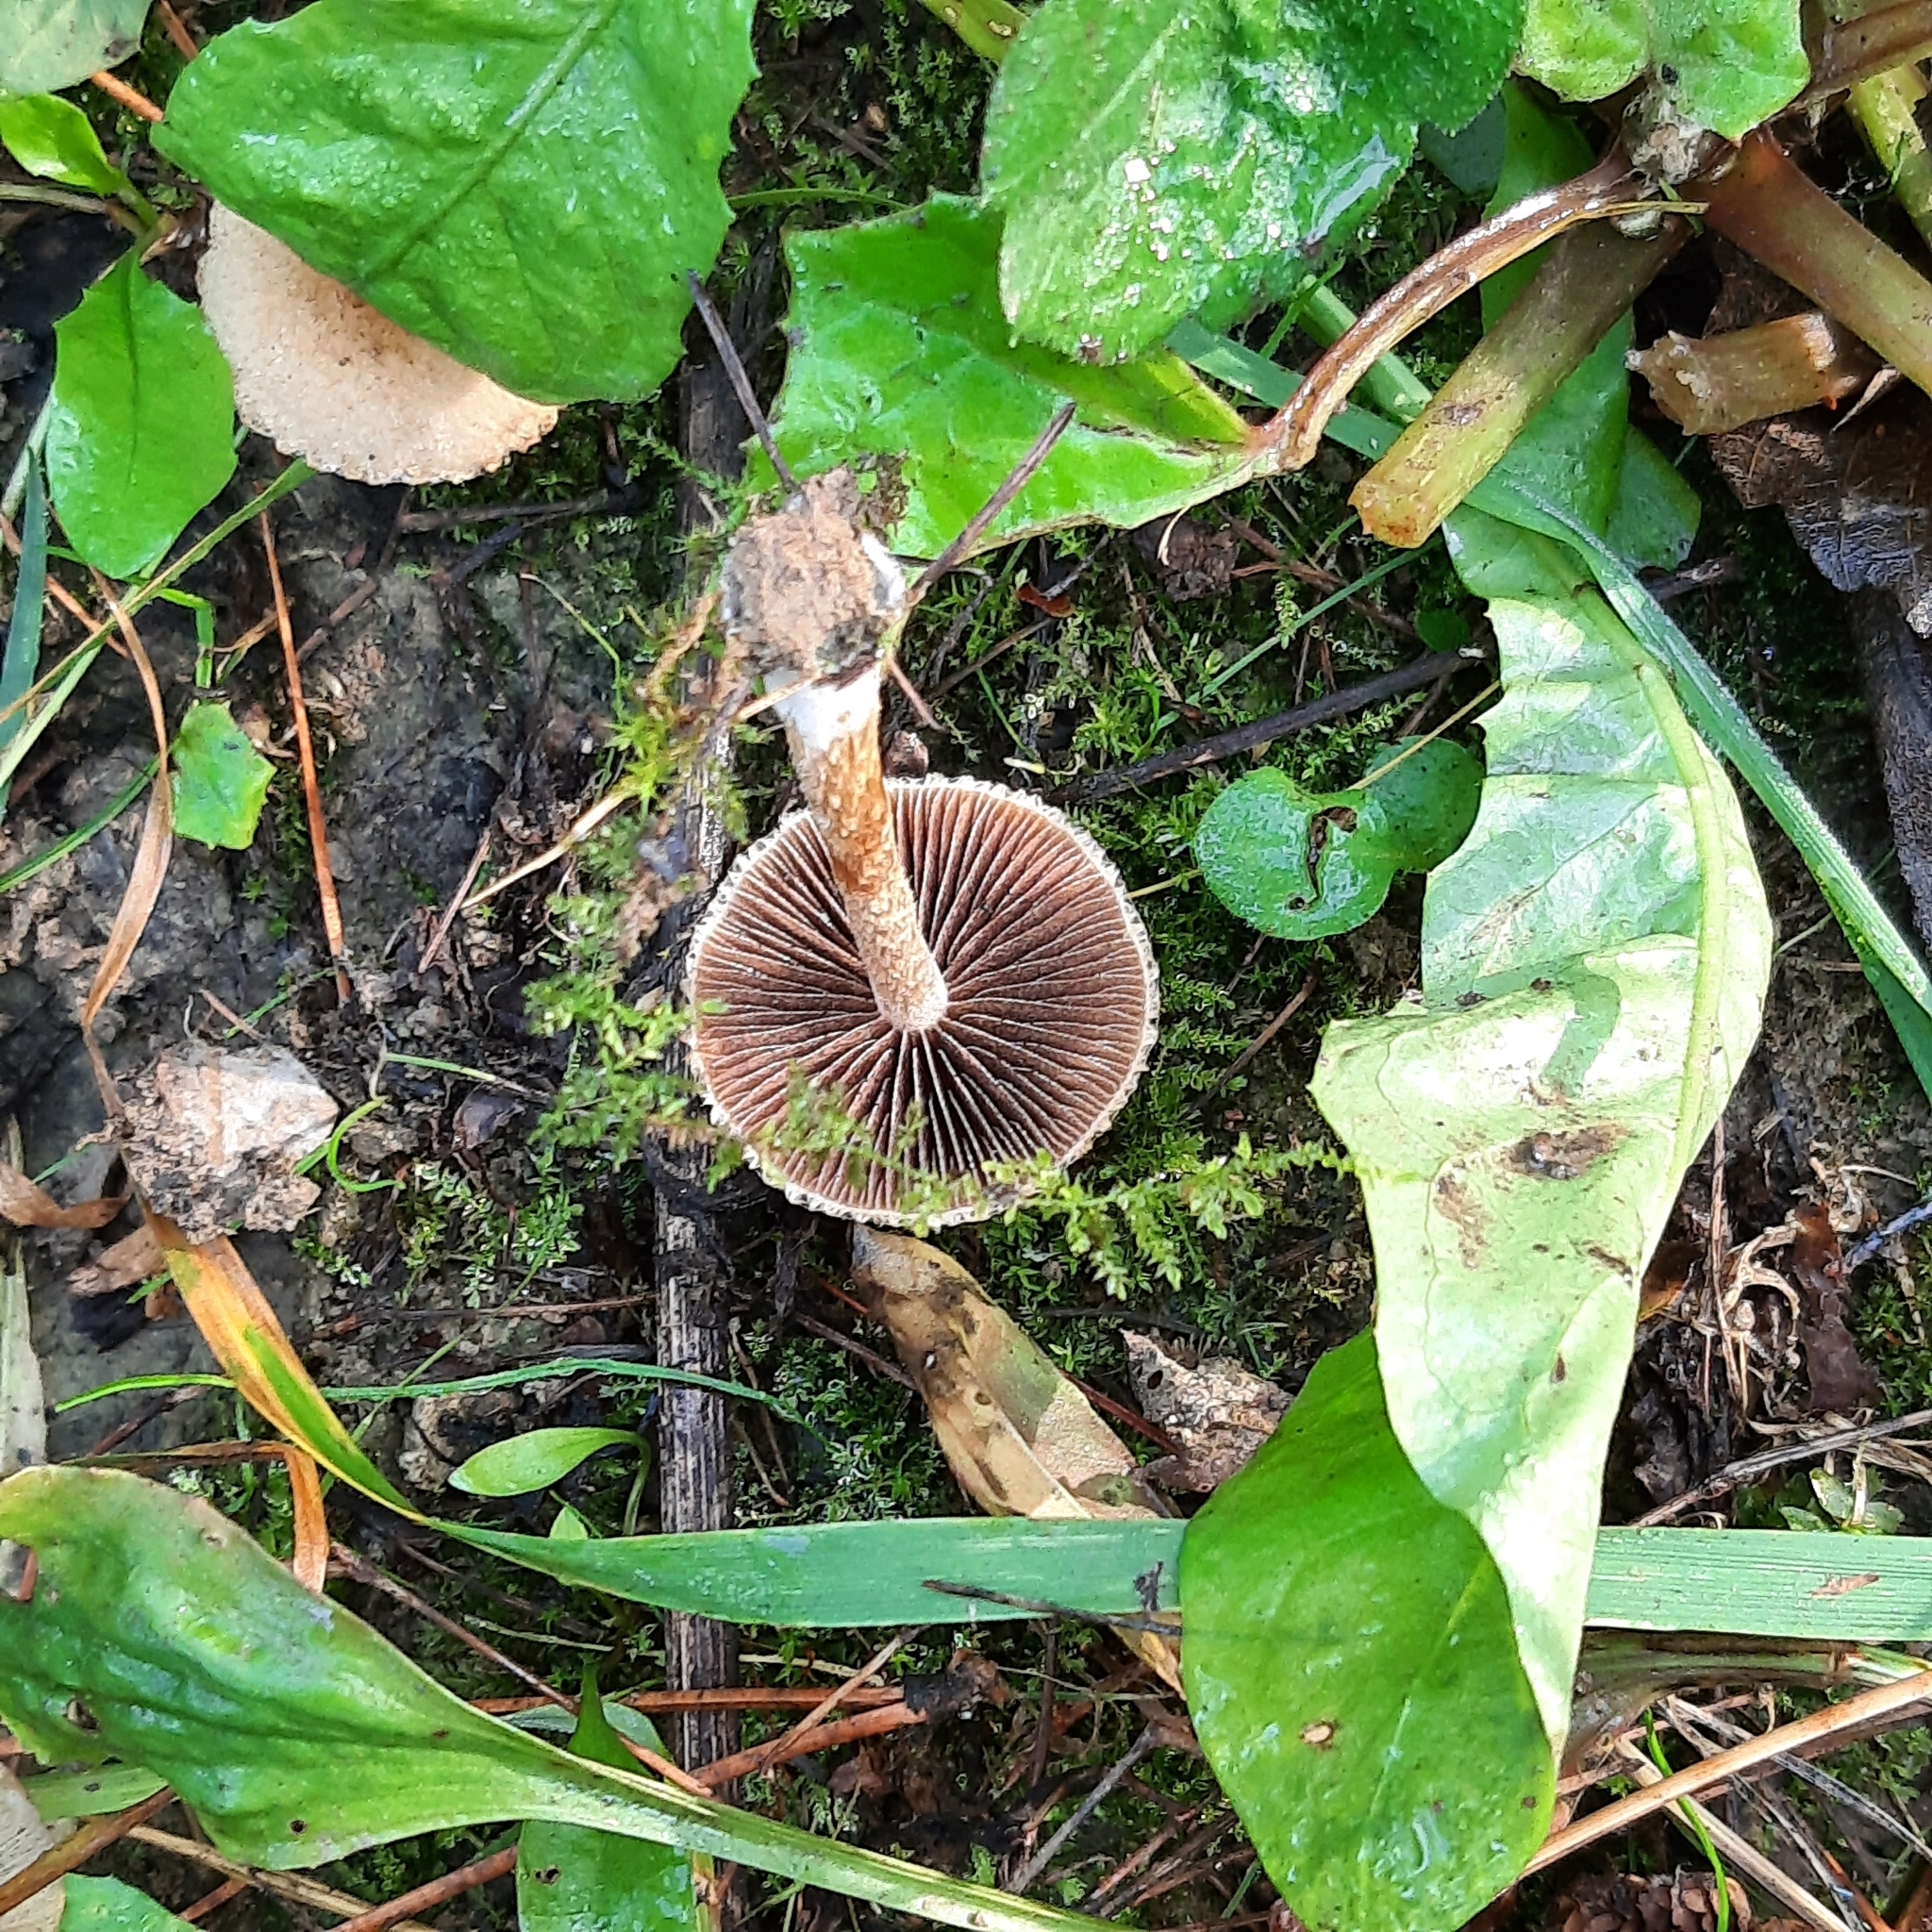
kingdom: Fungi
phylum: Basidiomycota
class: Agaricomycetes
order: Agaricales
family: Psathyrellaceae
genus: Lacrymaria
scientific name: Lacrymaria
